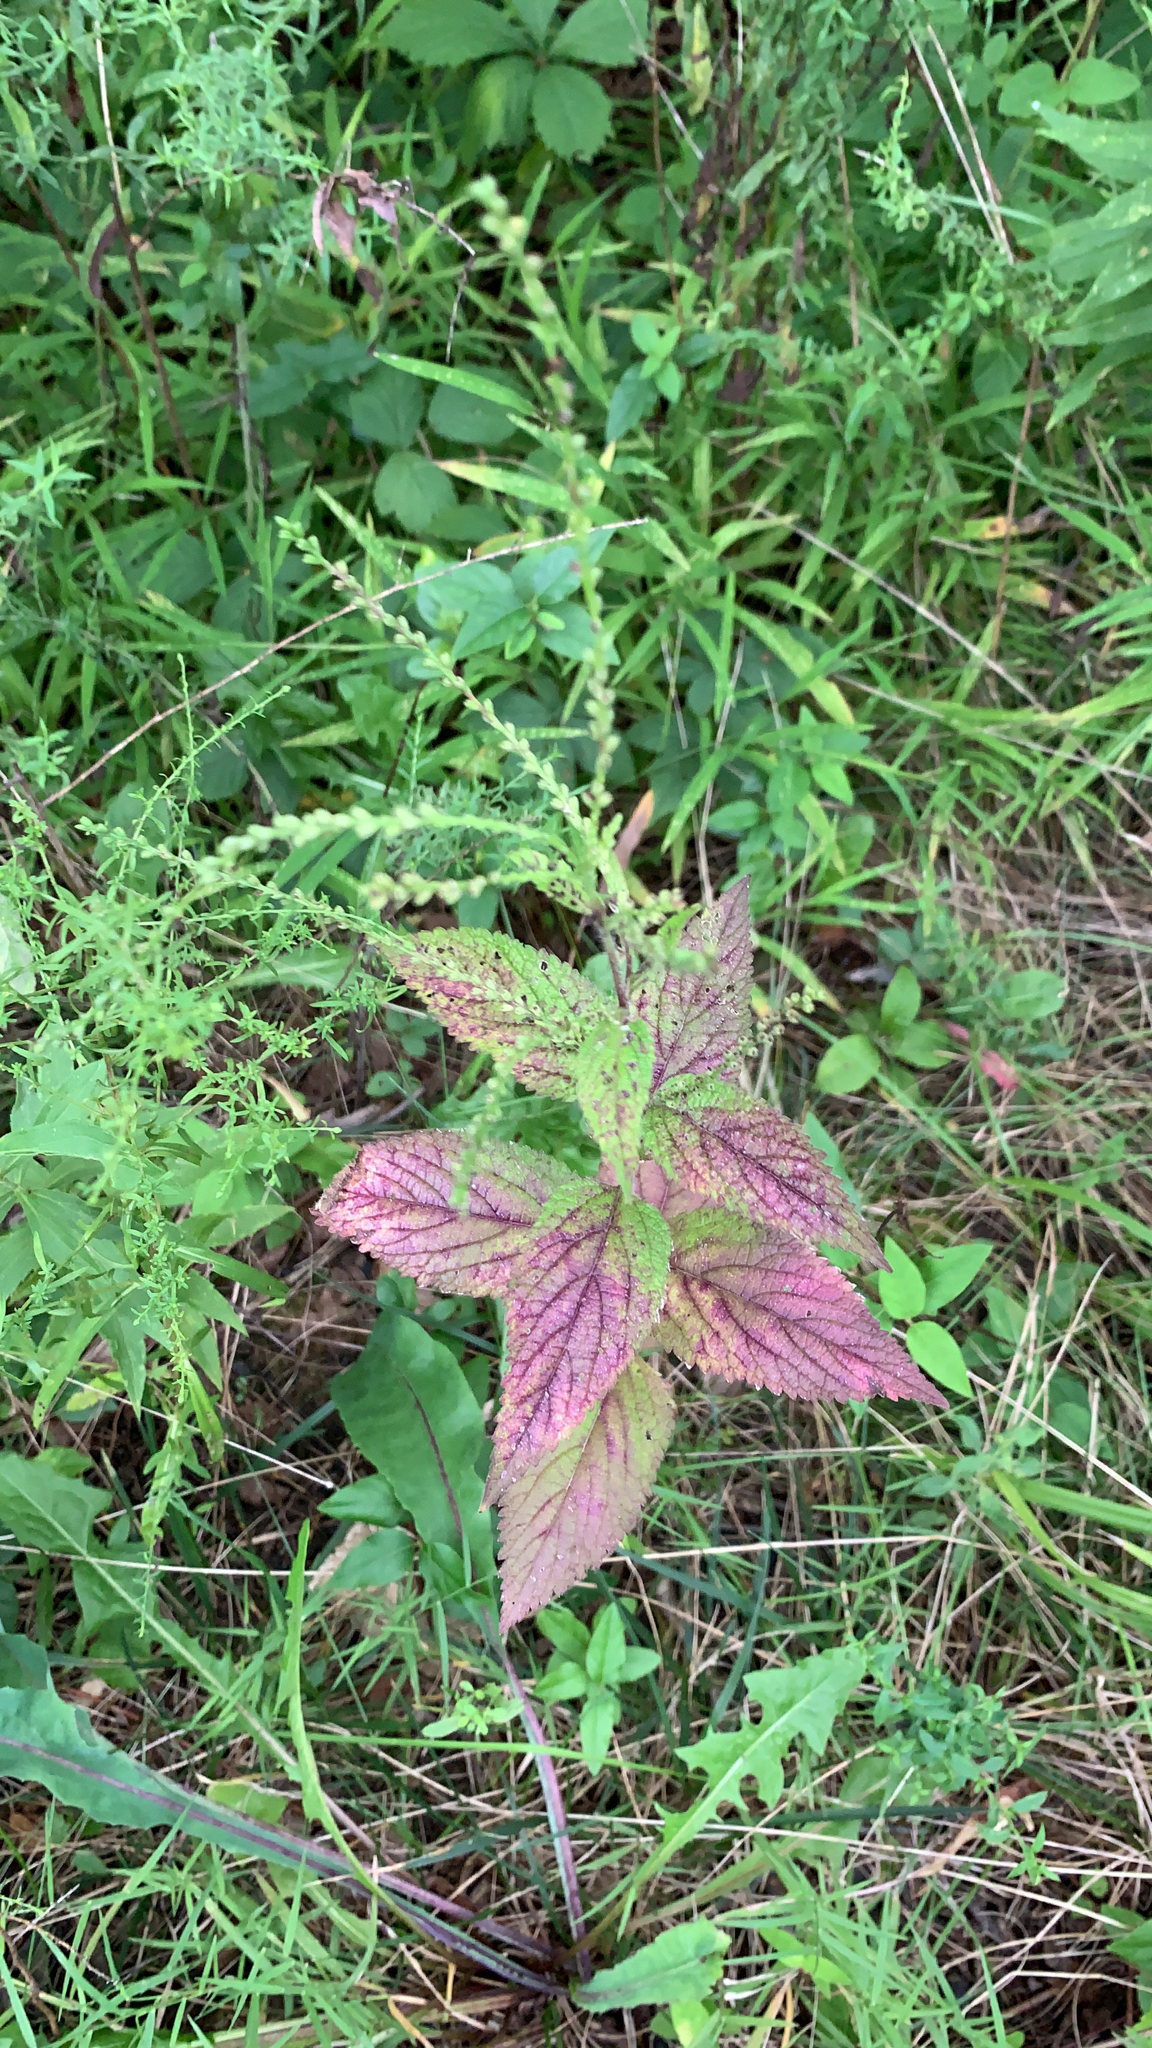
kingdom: Plantae
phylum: Tracheophyta
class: Magnoliopsida
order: Lamiales
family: Verbenaceae
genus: Verbena
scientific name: Verbena urticifolia
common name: Nettle-leaved vervain
